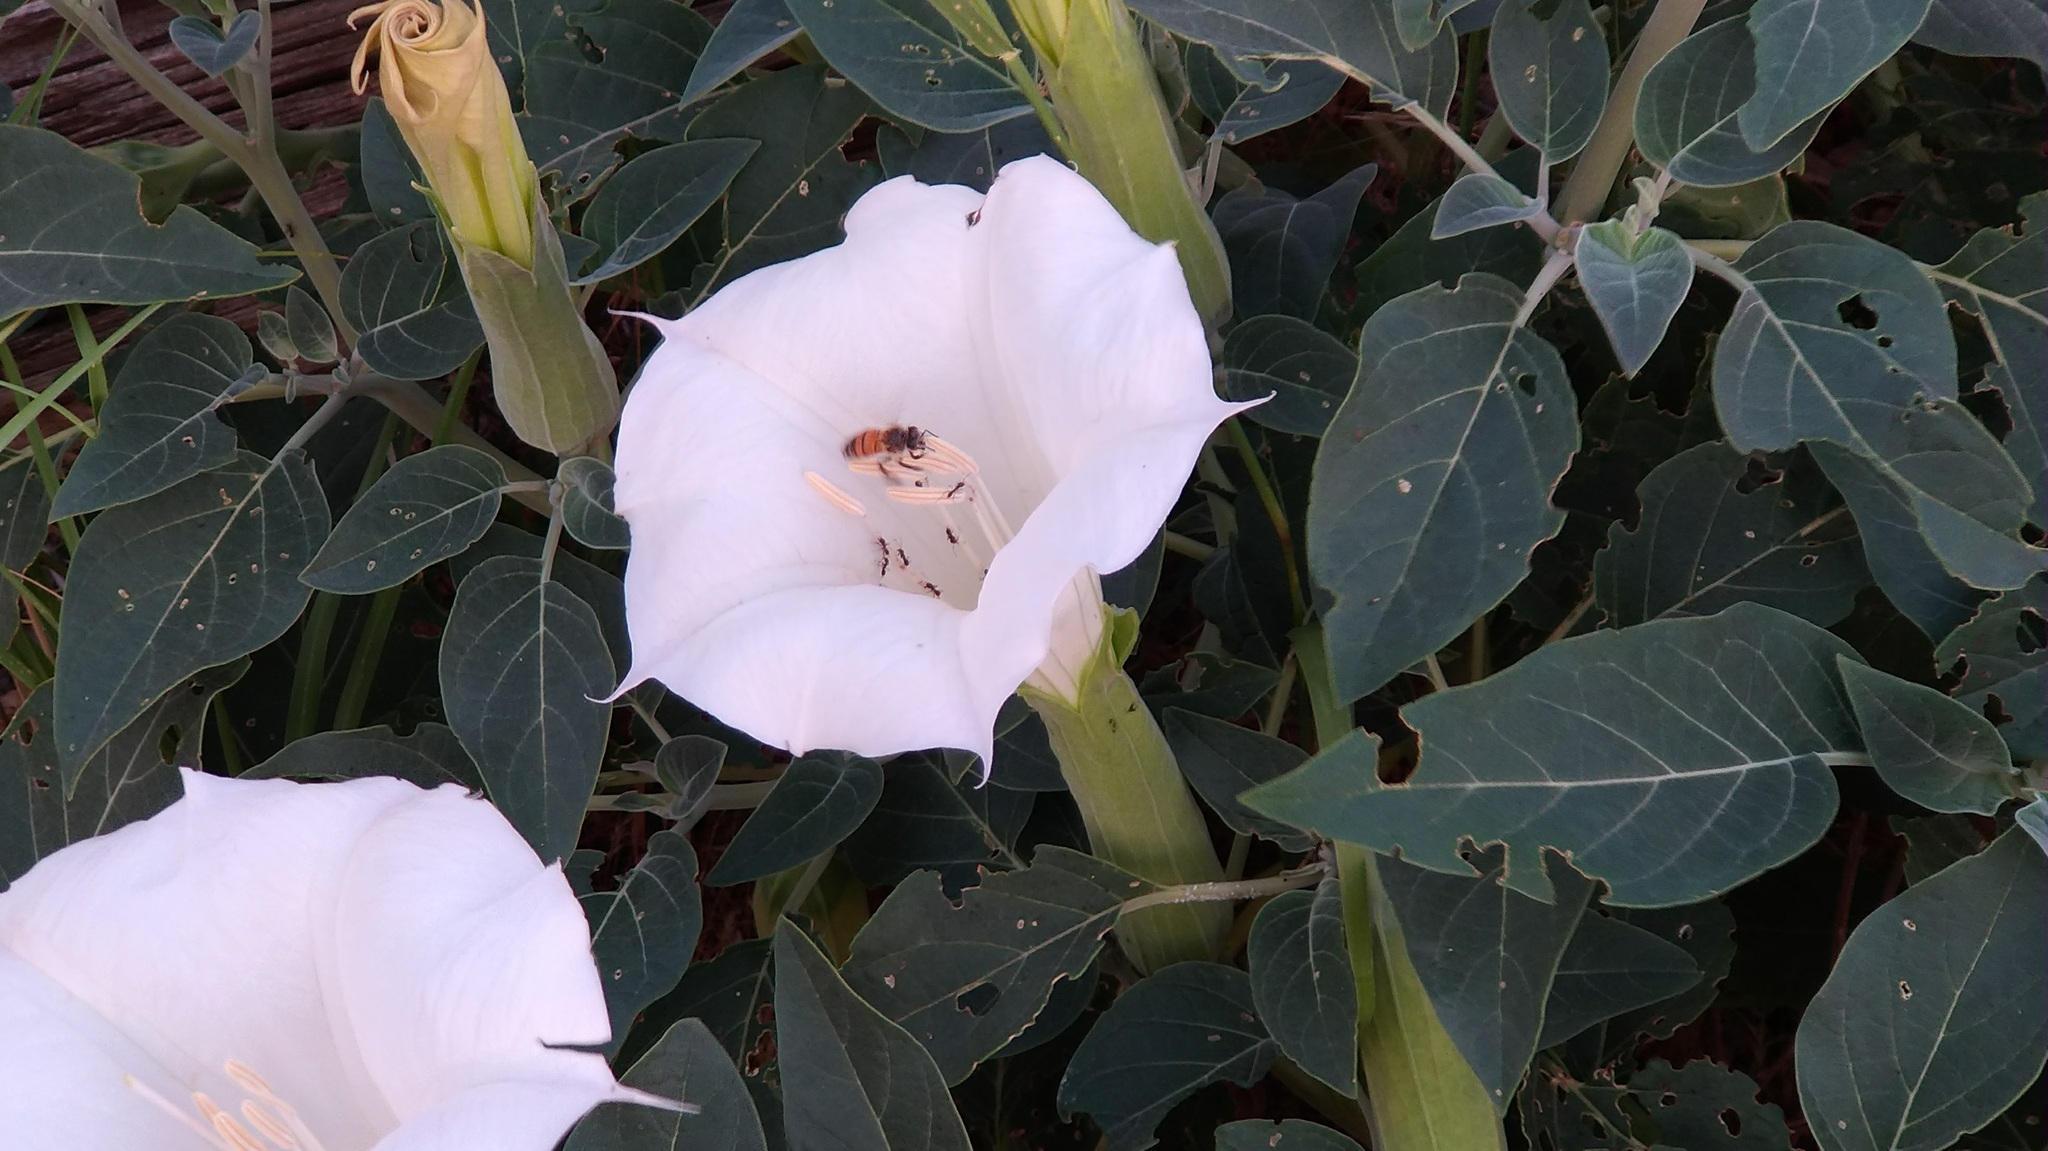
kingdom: Plantae
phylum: Tracheophyta
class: Magnoliopsida
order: Solanales
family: Solanaceae
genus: Datura
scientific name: Datura wrightii
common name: Sacred thorn-apple
